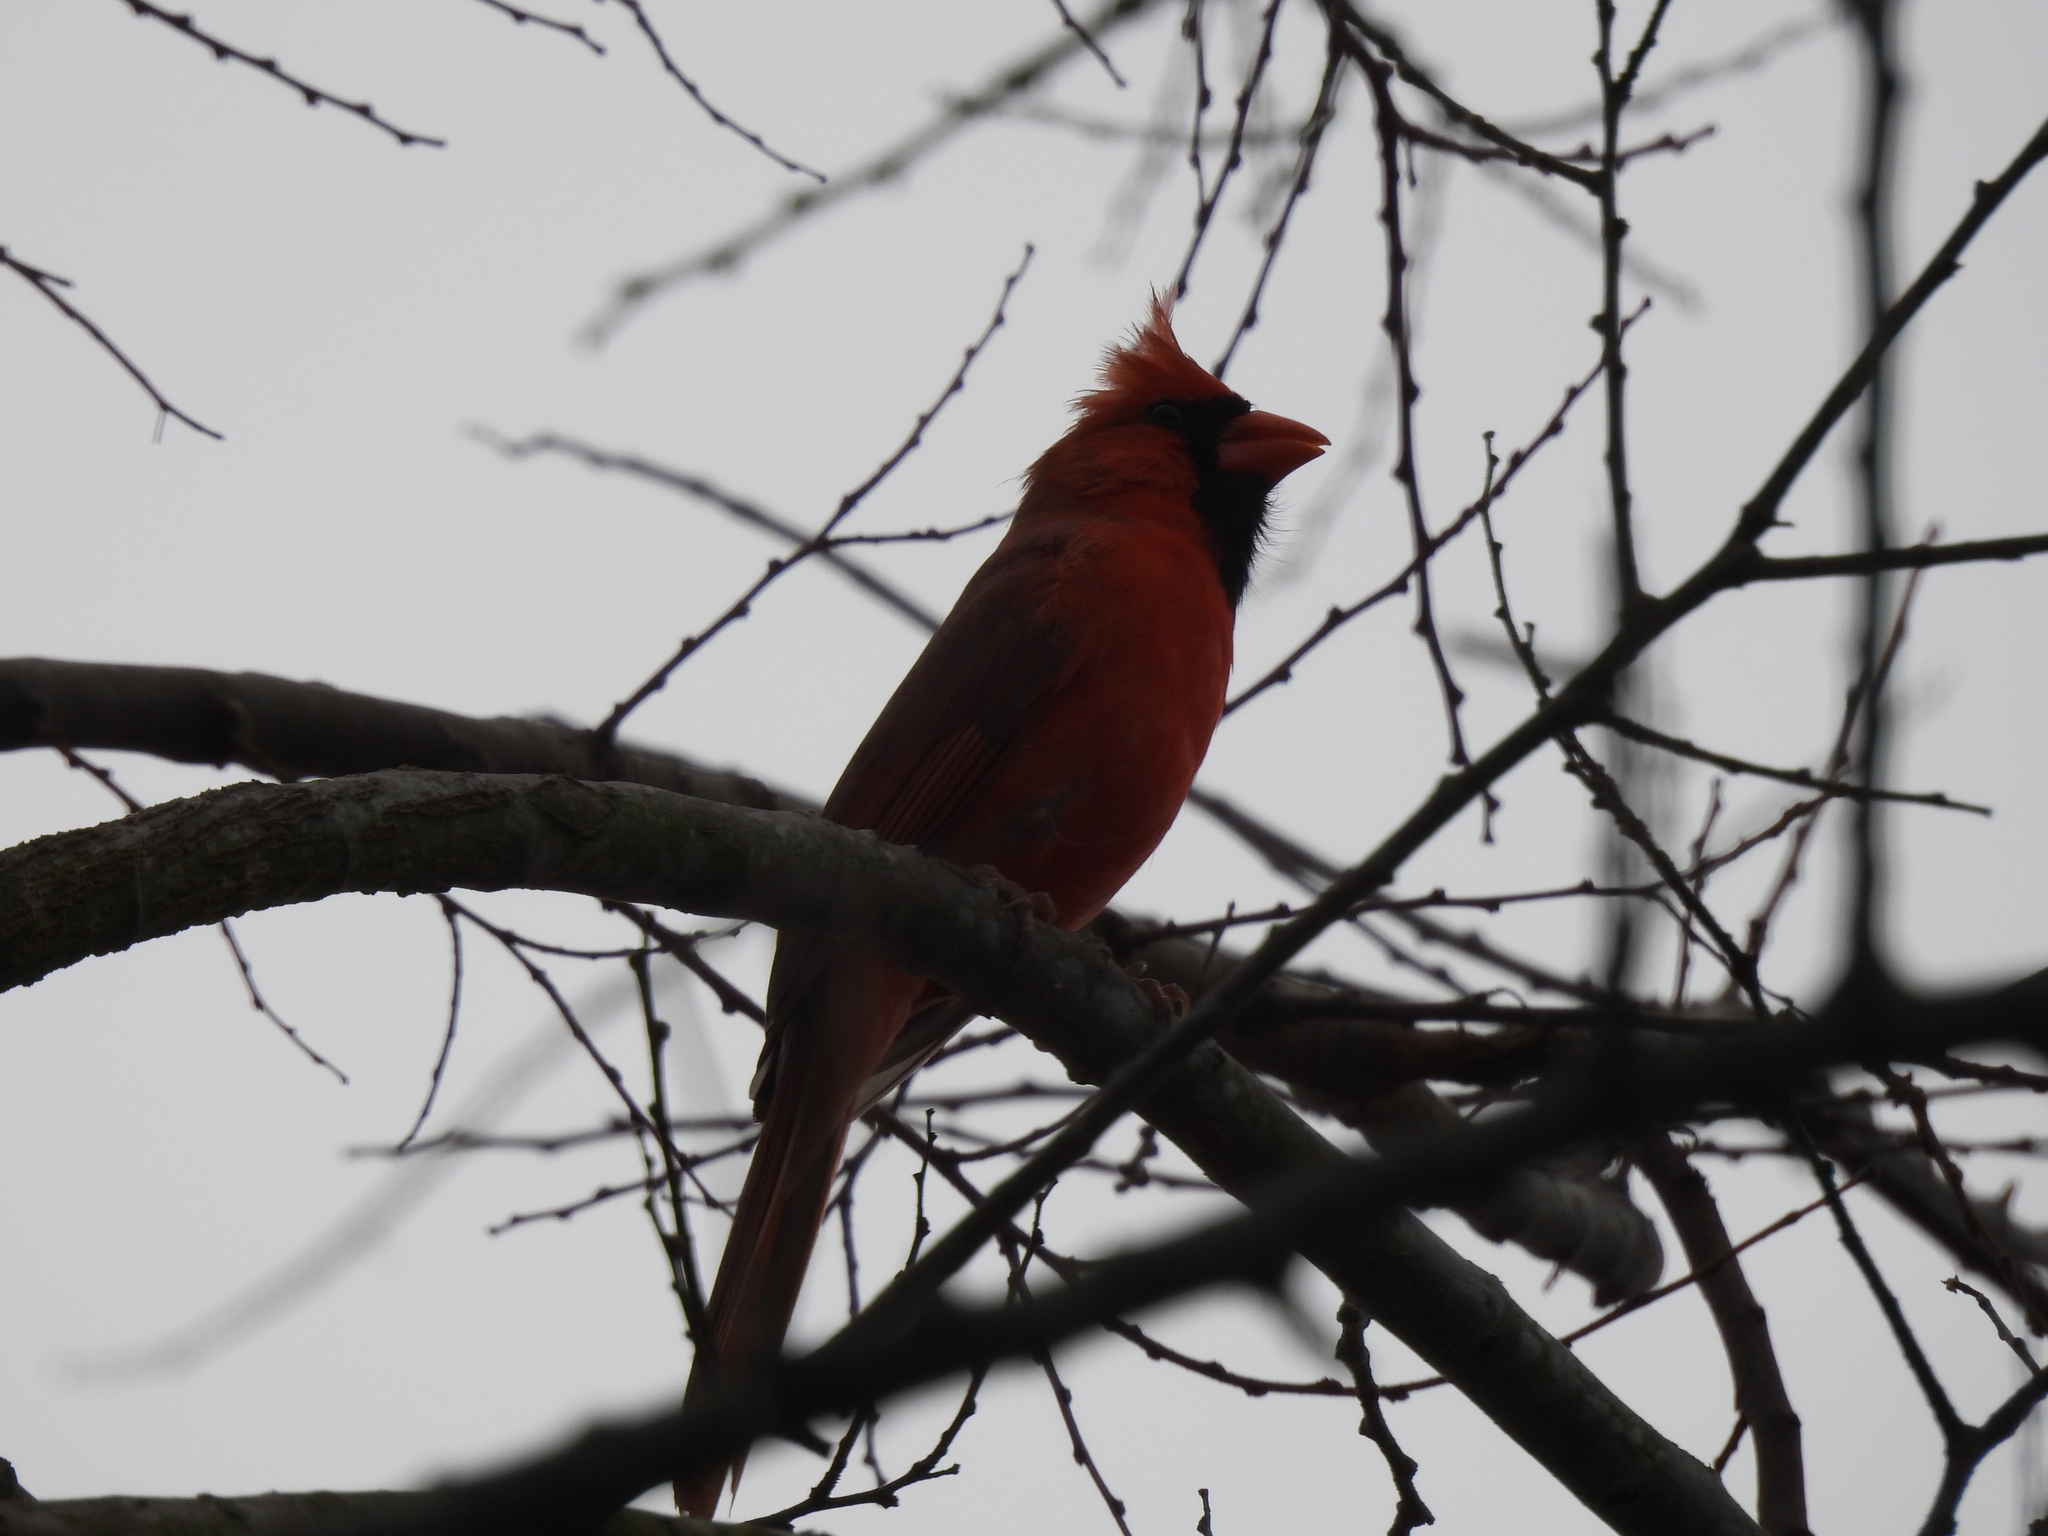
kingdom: Animalia
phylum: Chordata
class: Aves
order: Passeriformes
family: Cardinalidae
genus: Cardinalis
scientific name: Cardinalis cardinalis
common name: Northern cardinal
